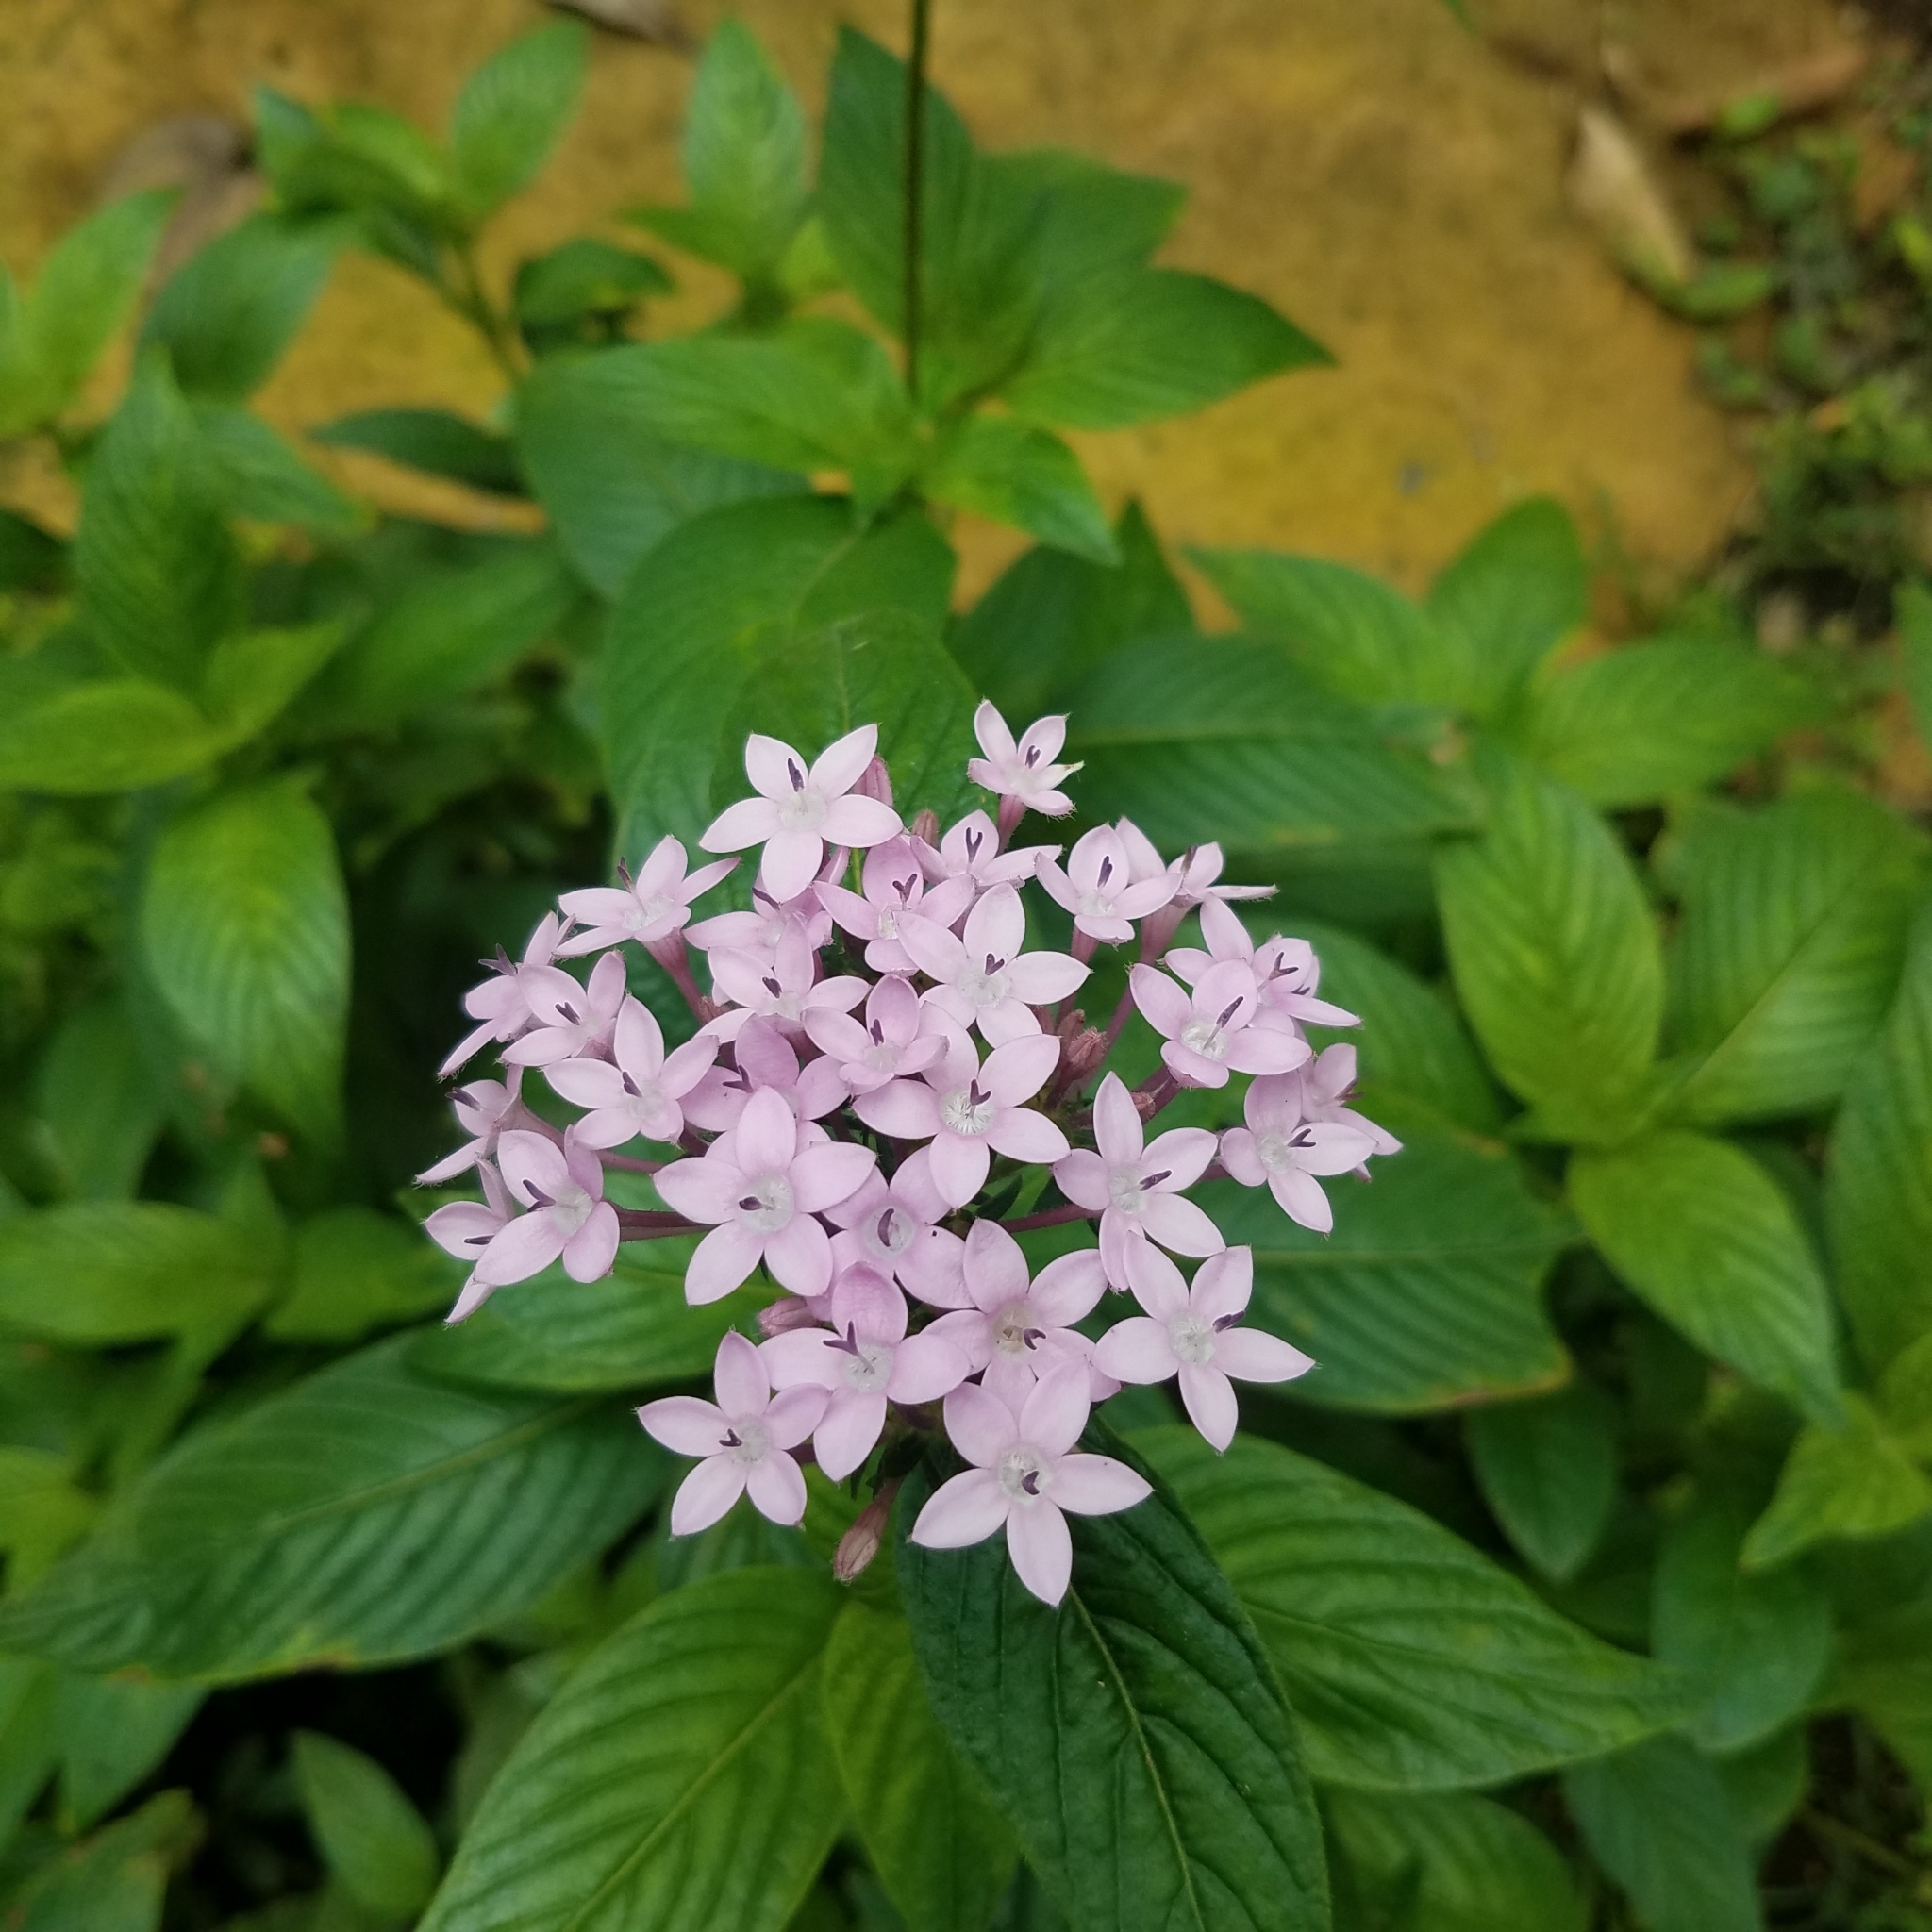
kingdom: Plantae
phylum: Tracheophyta
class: Magnoliopsida
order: Gentianales
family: Rubiaceae
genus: Pentas
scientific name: Pentas lanceolata
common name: Egyptian starcluster
